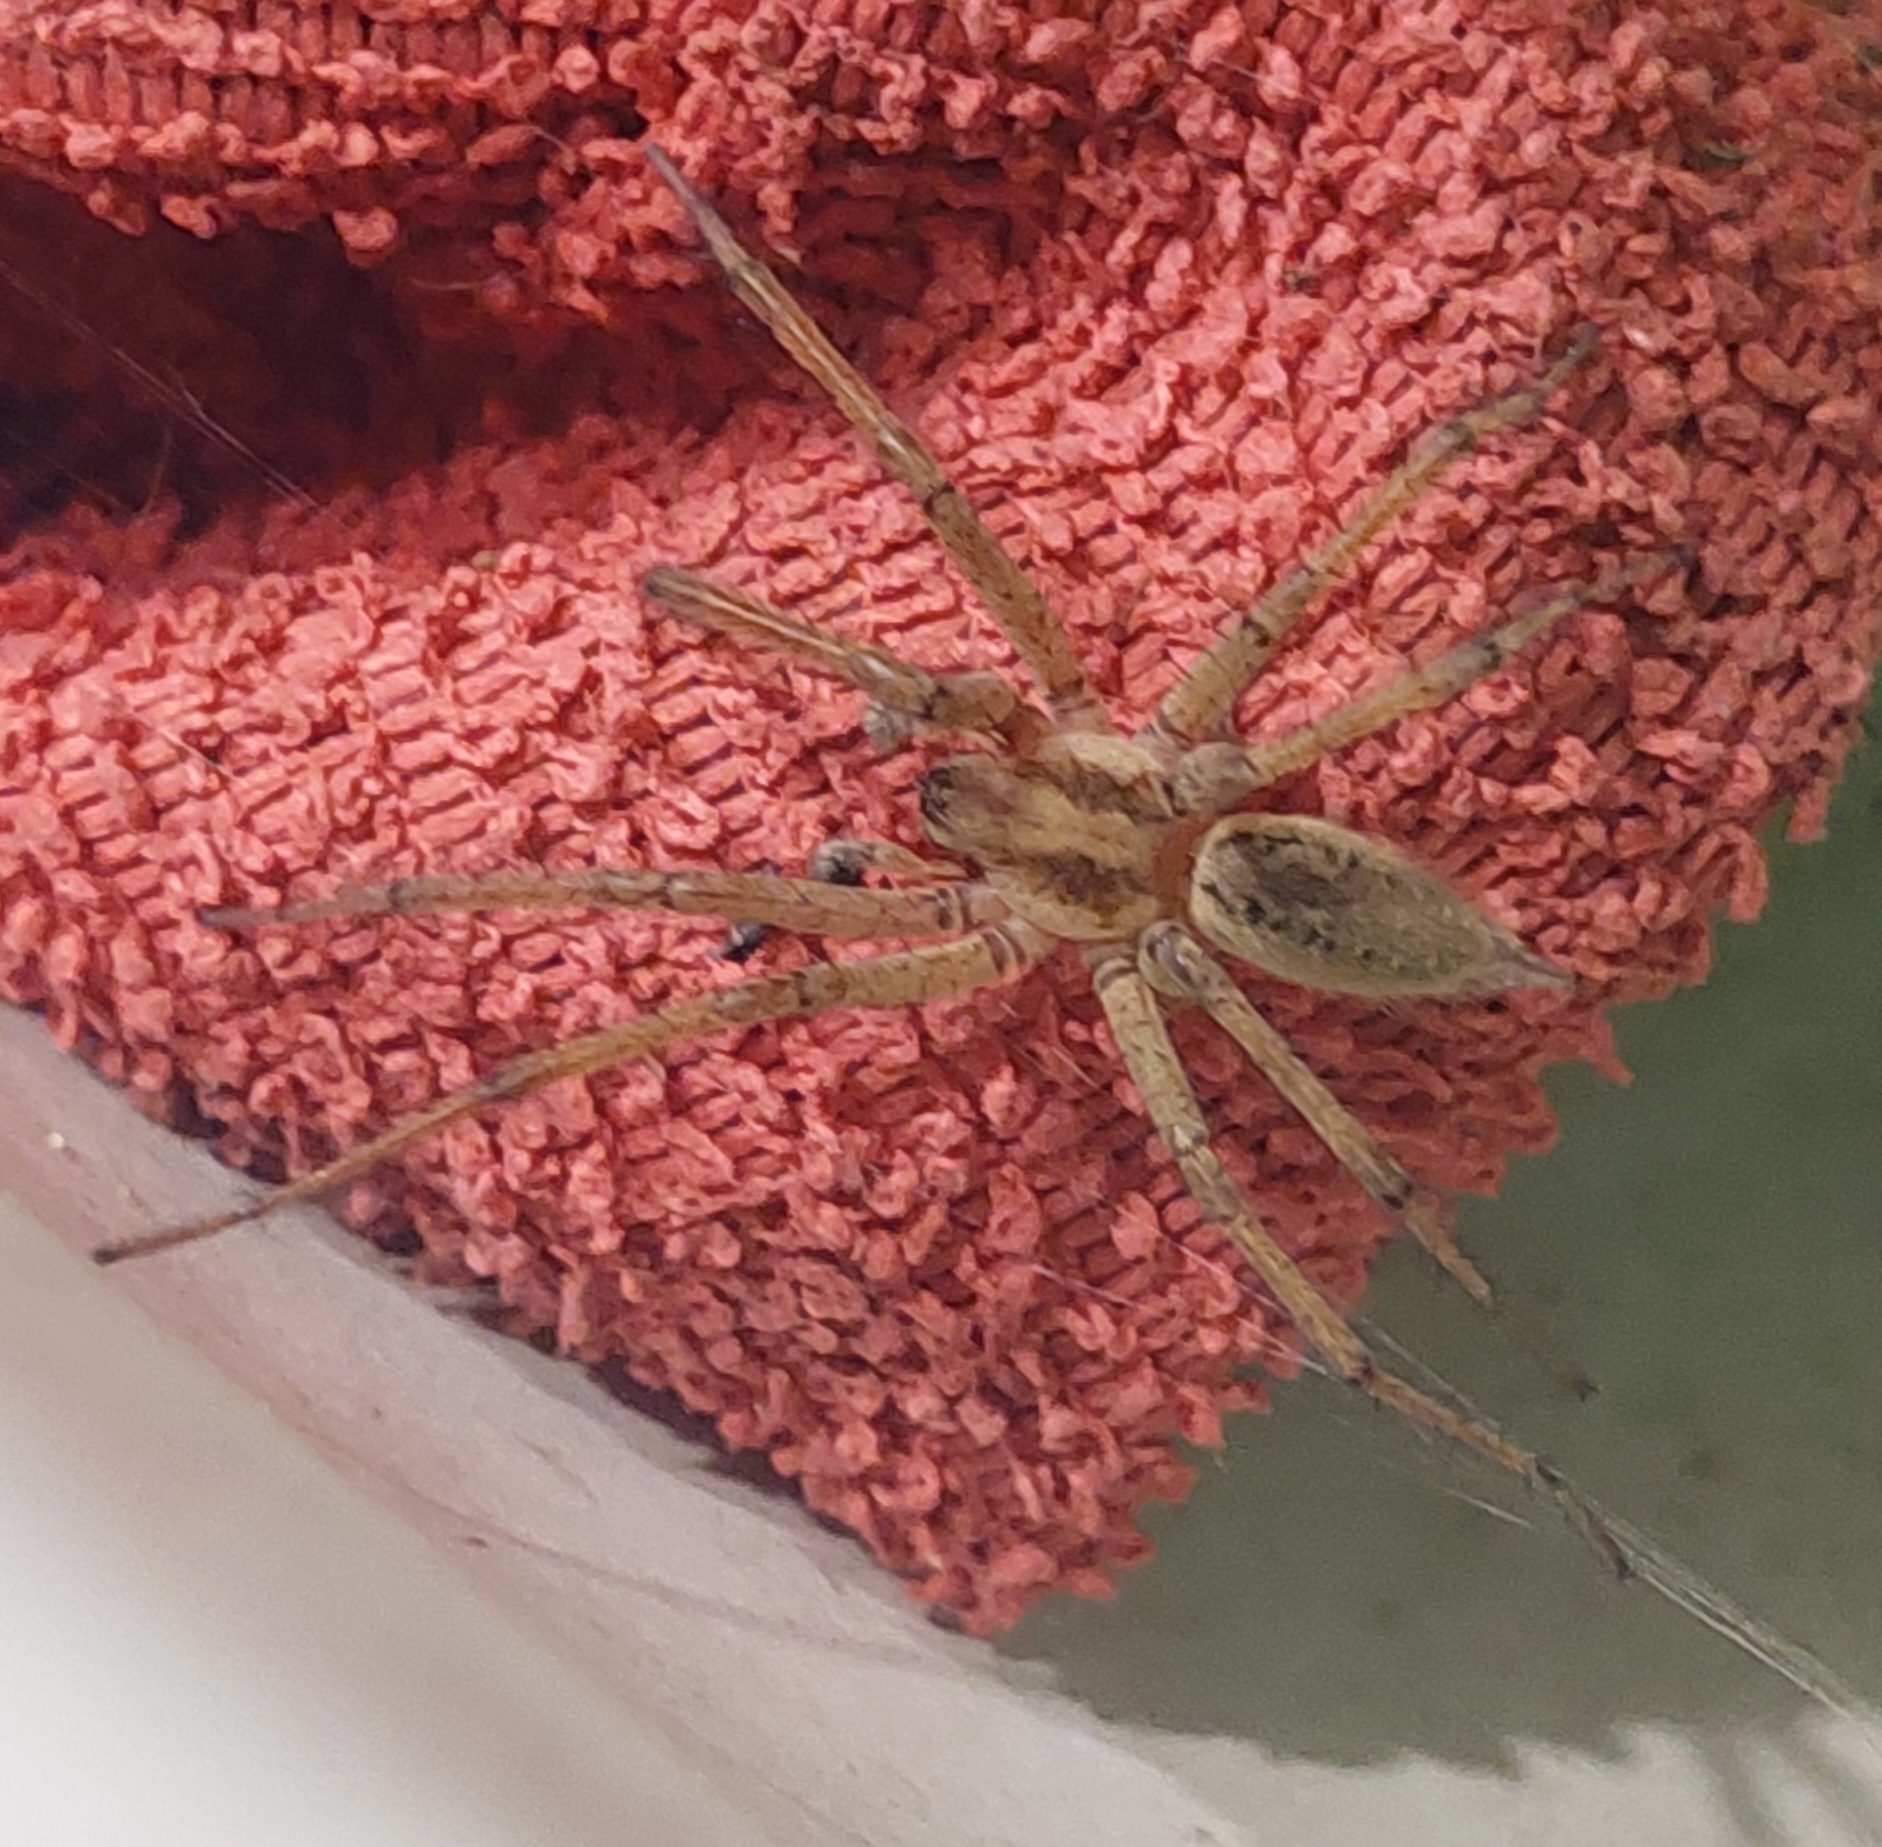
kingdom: Animalia
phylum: Arthropoda
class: Arachnida
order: Araneae
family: Agelenidae
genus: Agelena
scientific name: Agelena labyrinthica
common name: Labyrinth spider
